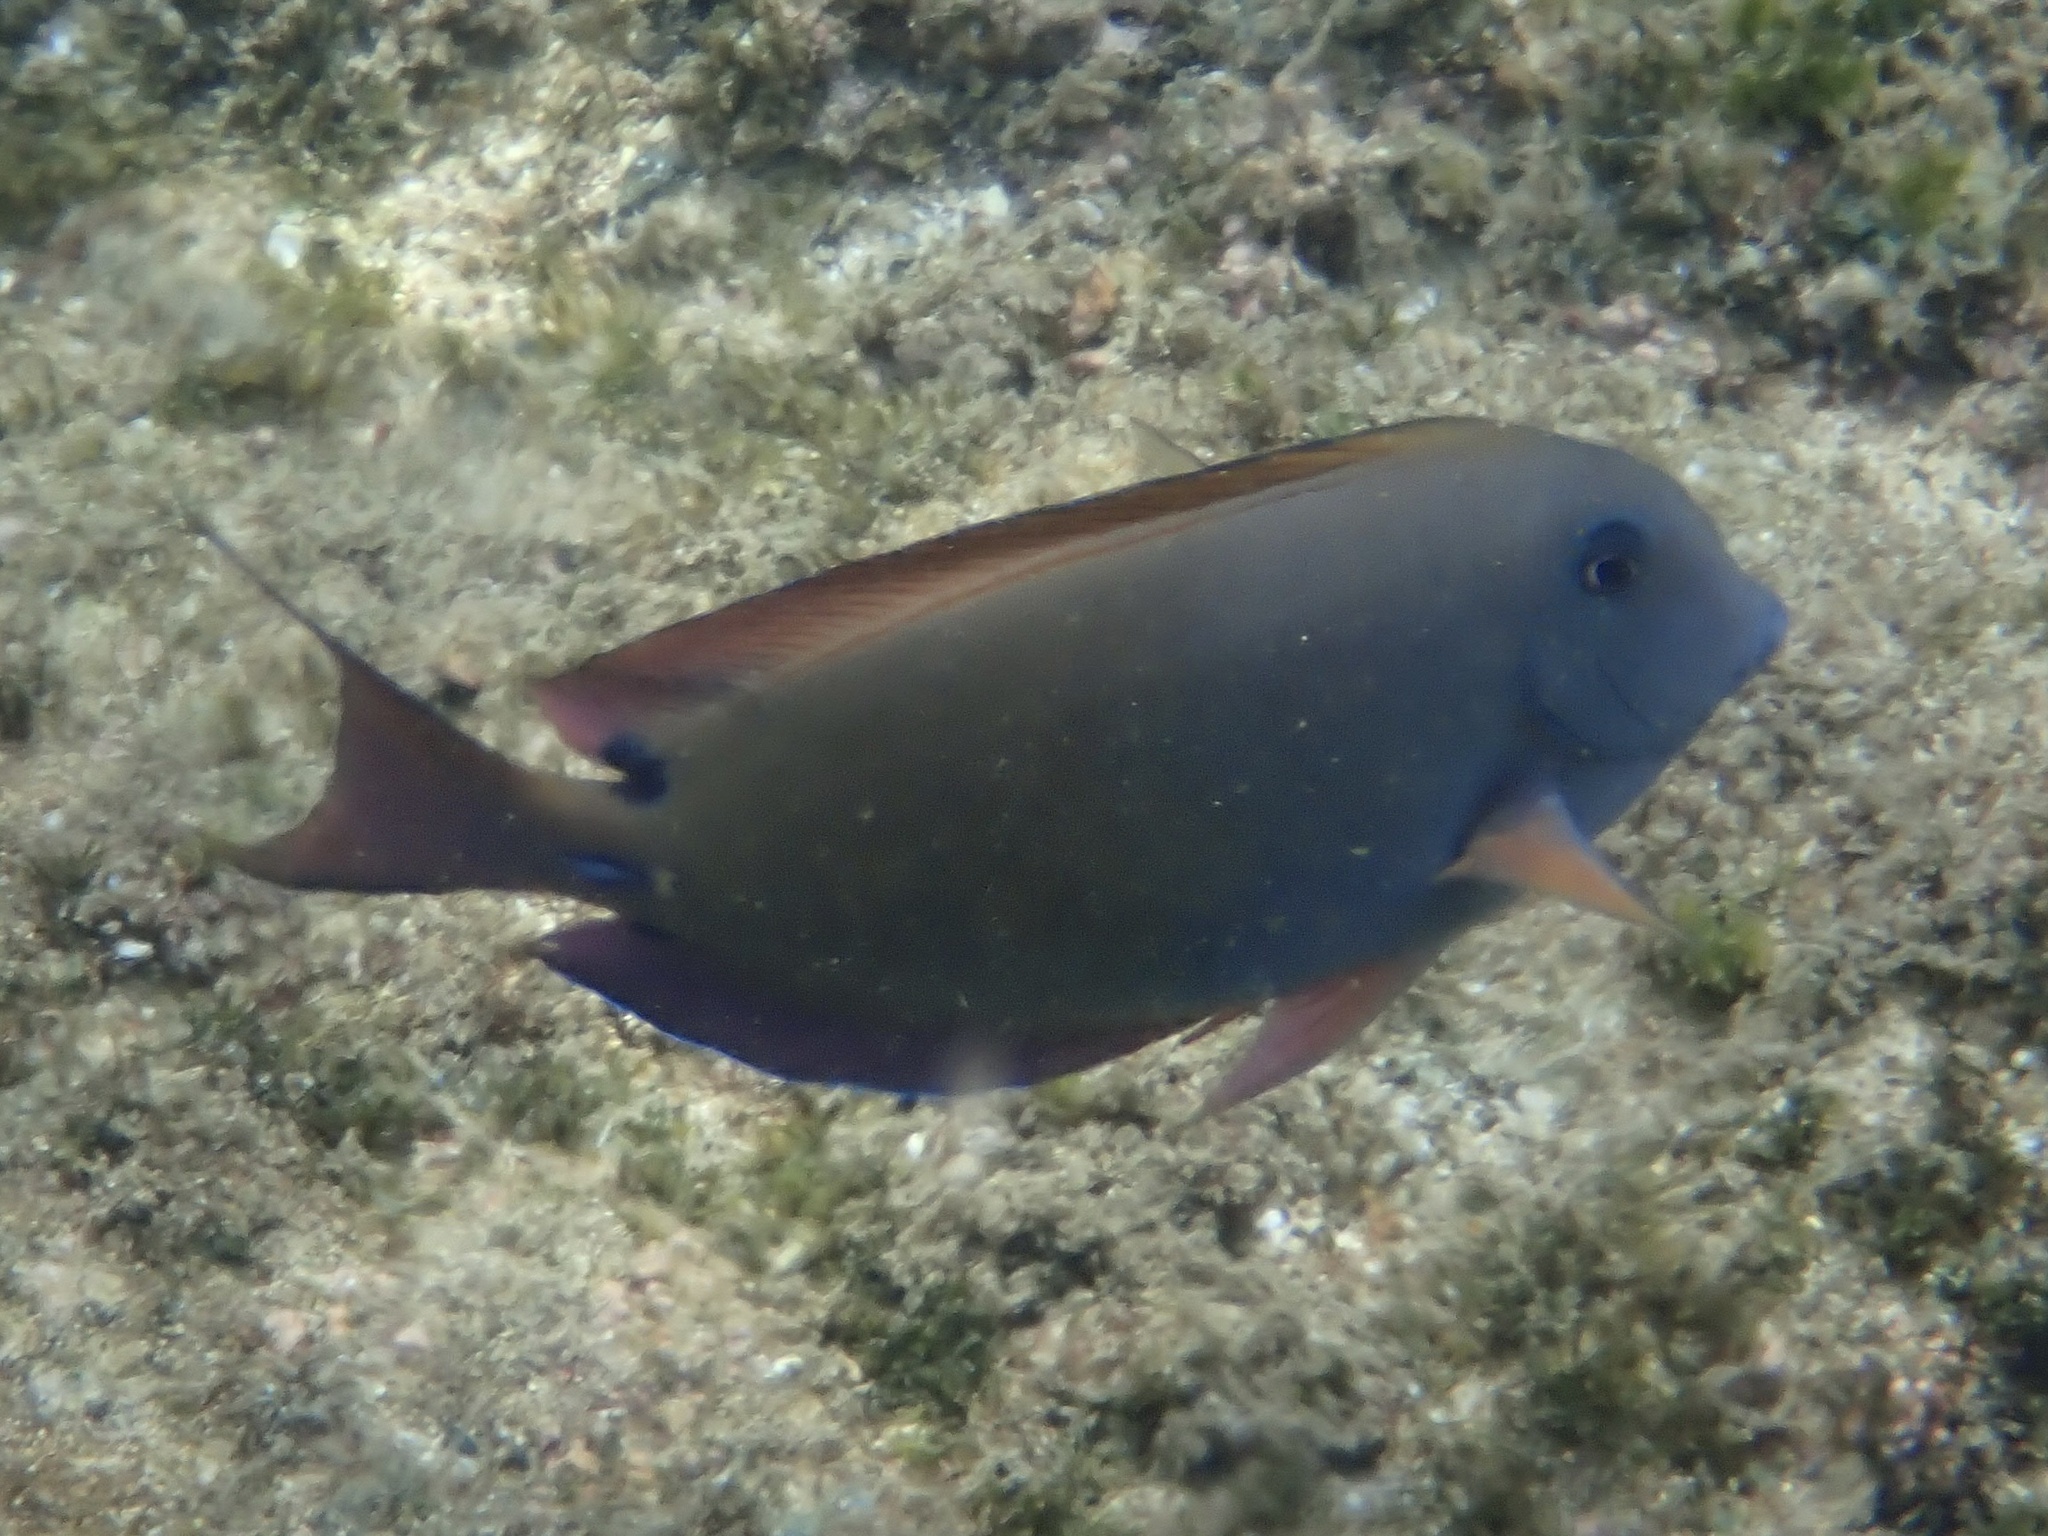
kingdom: Animalia
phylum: Chordata
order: Perciformes
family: Acanthuridae
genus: Acanthurus
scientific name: Acanthurus nigrofuscus
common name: Blackspot surgeonfish
